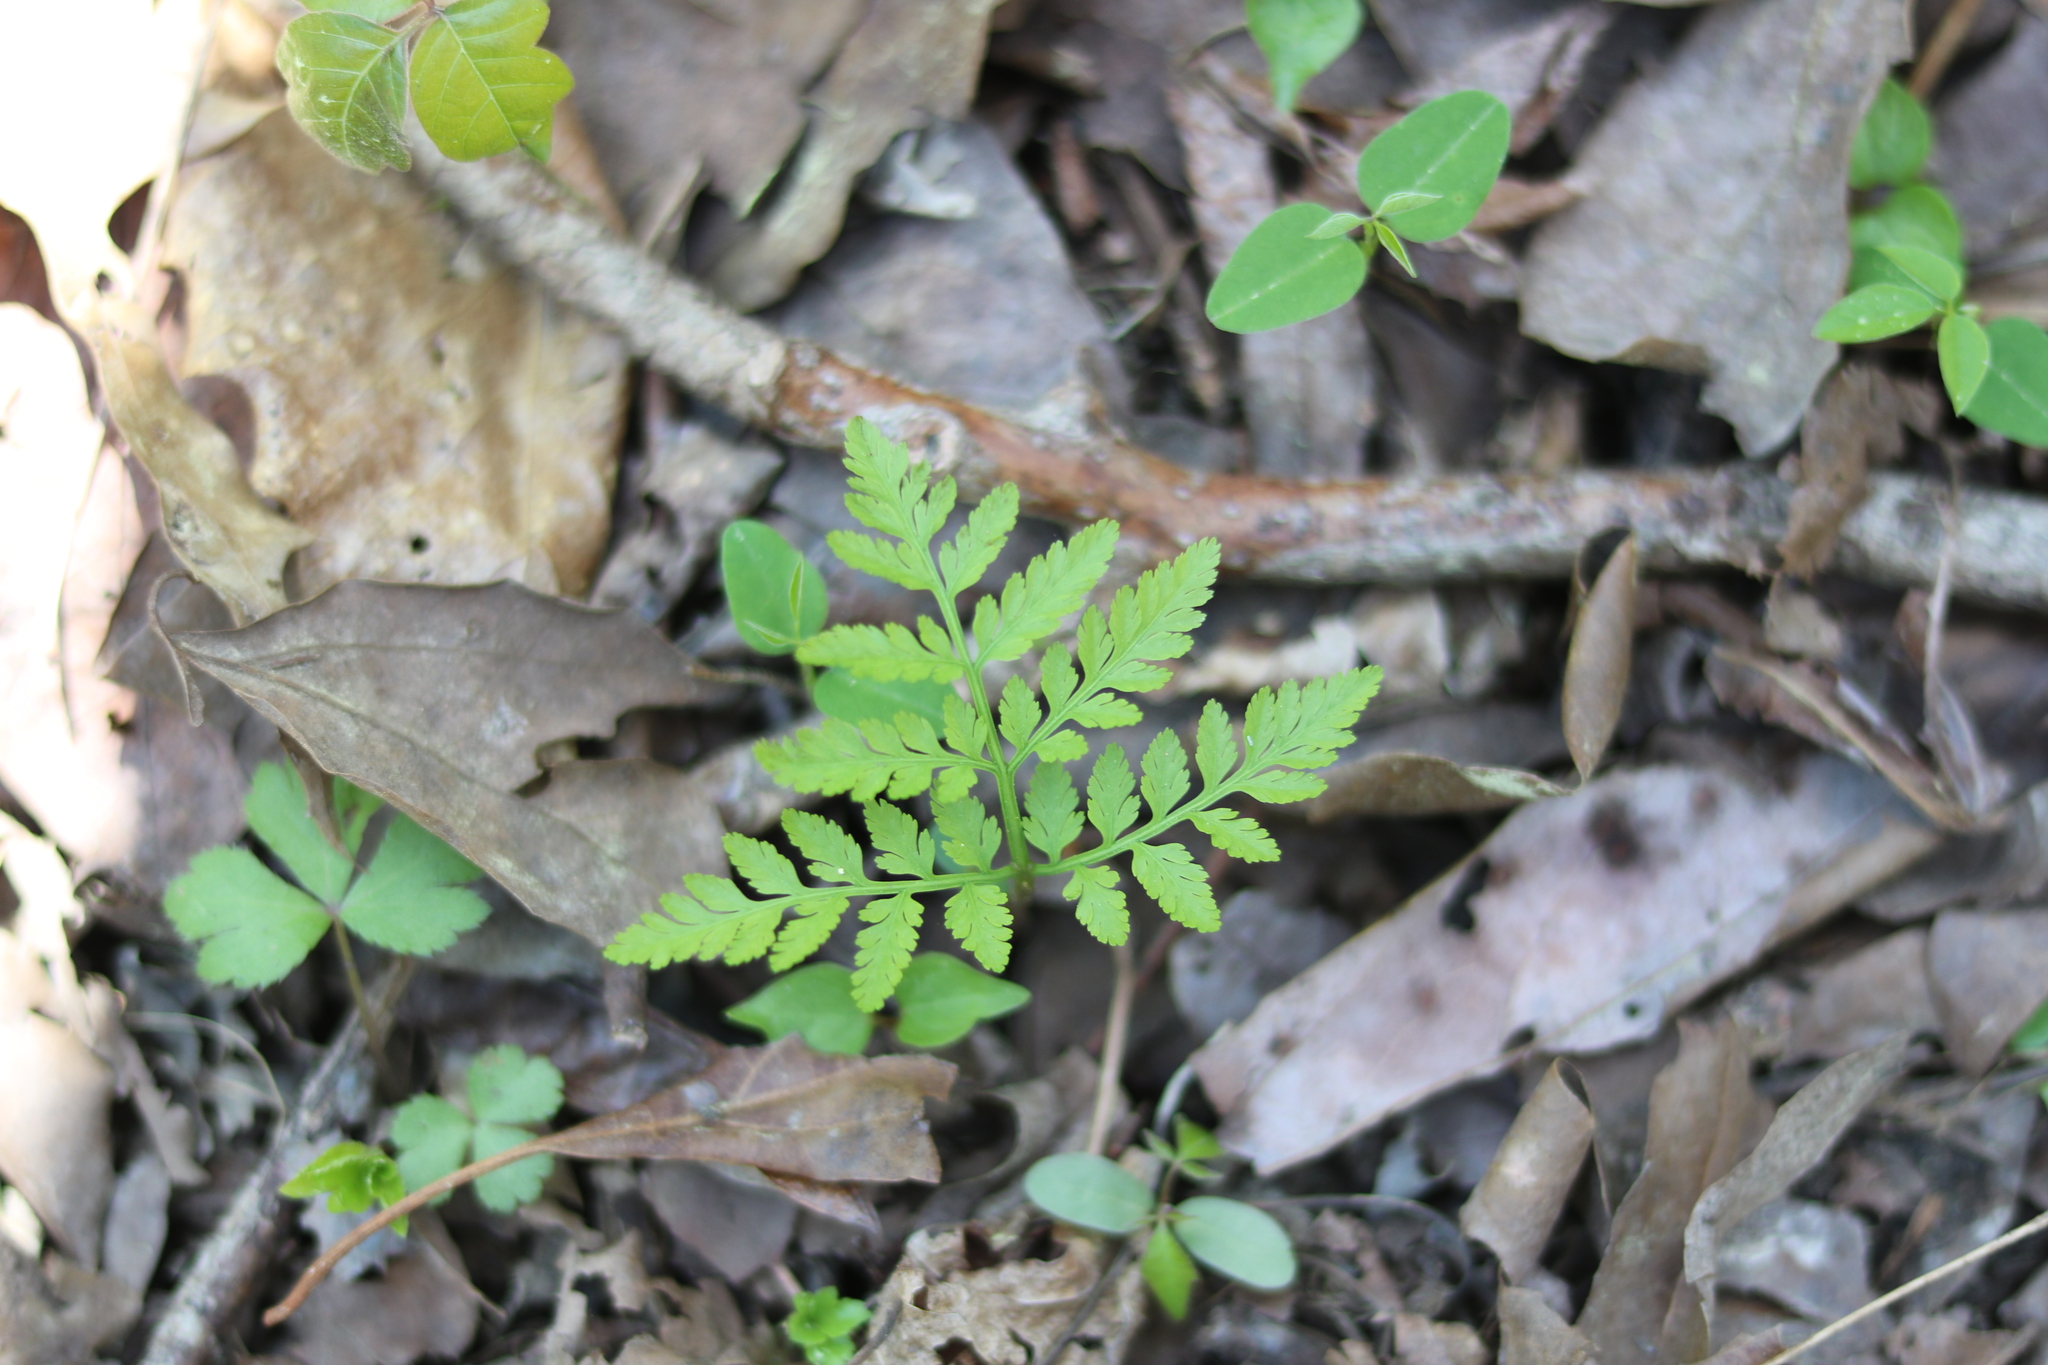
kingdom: Plantae
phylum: Tracheophyta
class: Polypodiopsida
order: Ophioglossales
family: Ophioglossaceae
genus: Botrypus
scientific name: Botrypus virginianus
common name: Common grapefern
